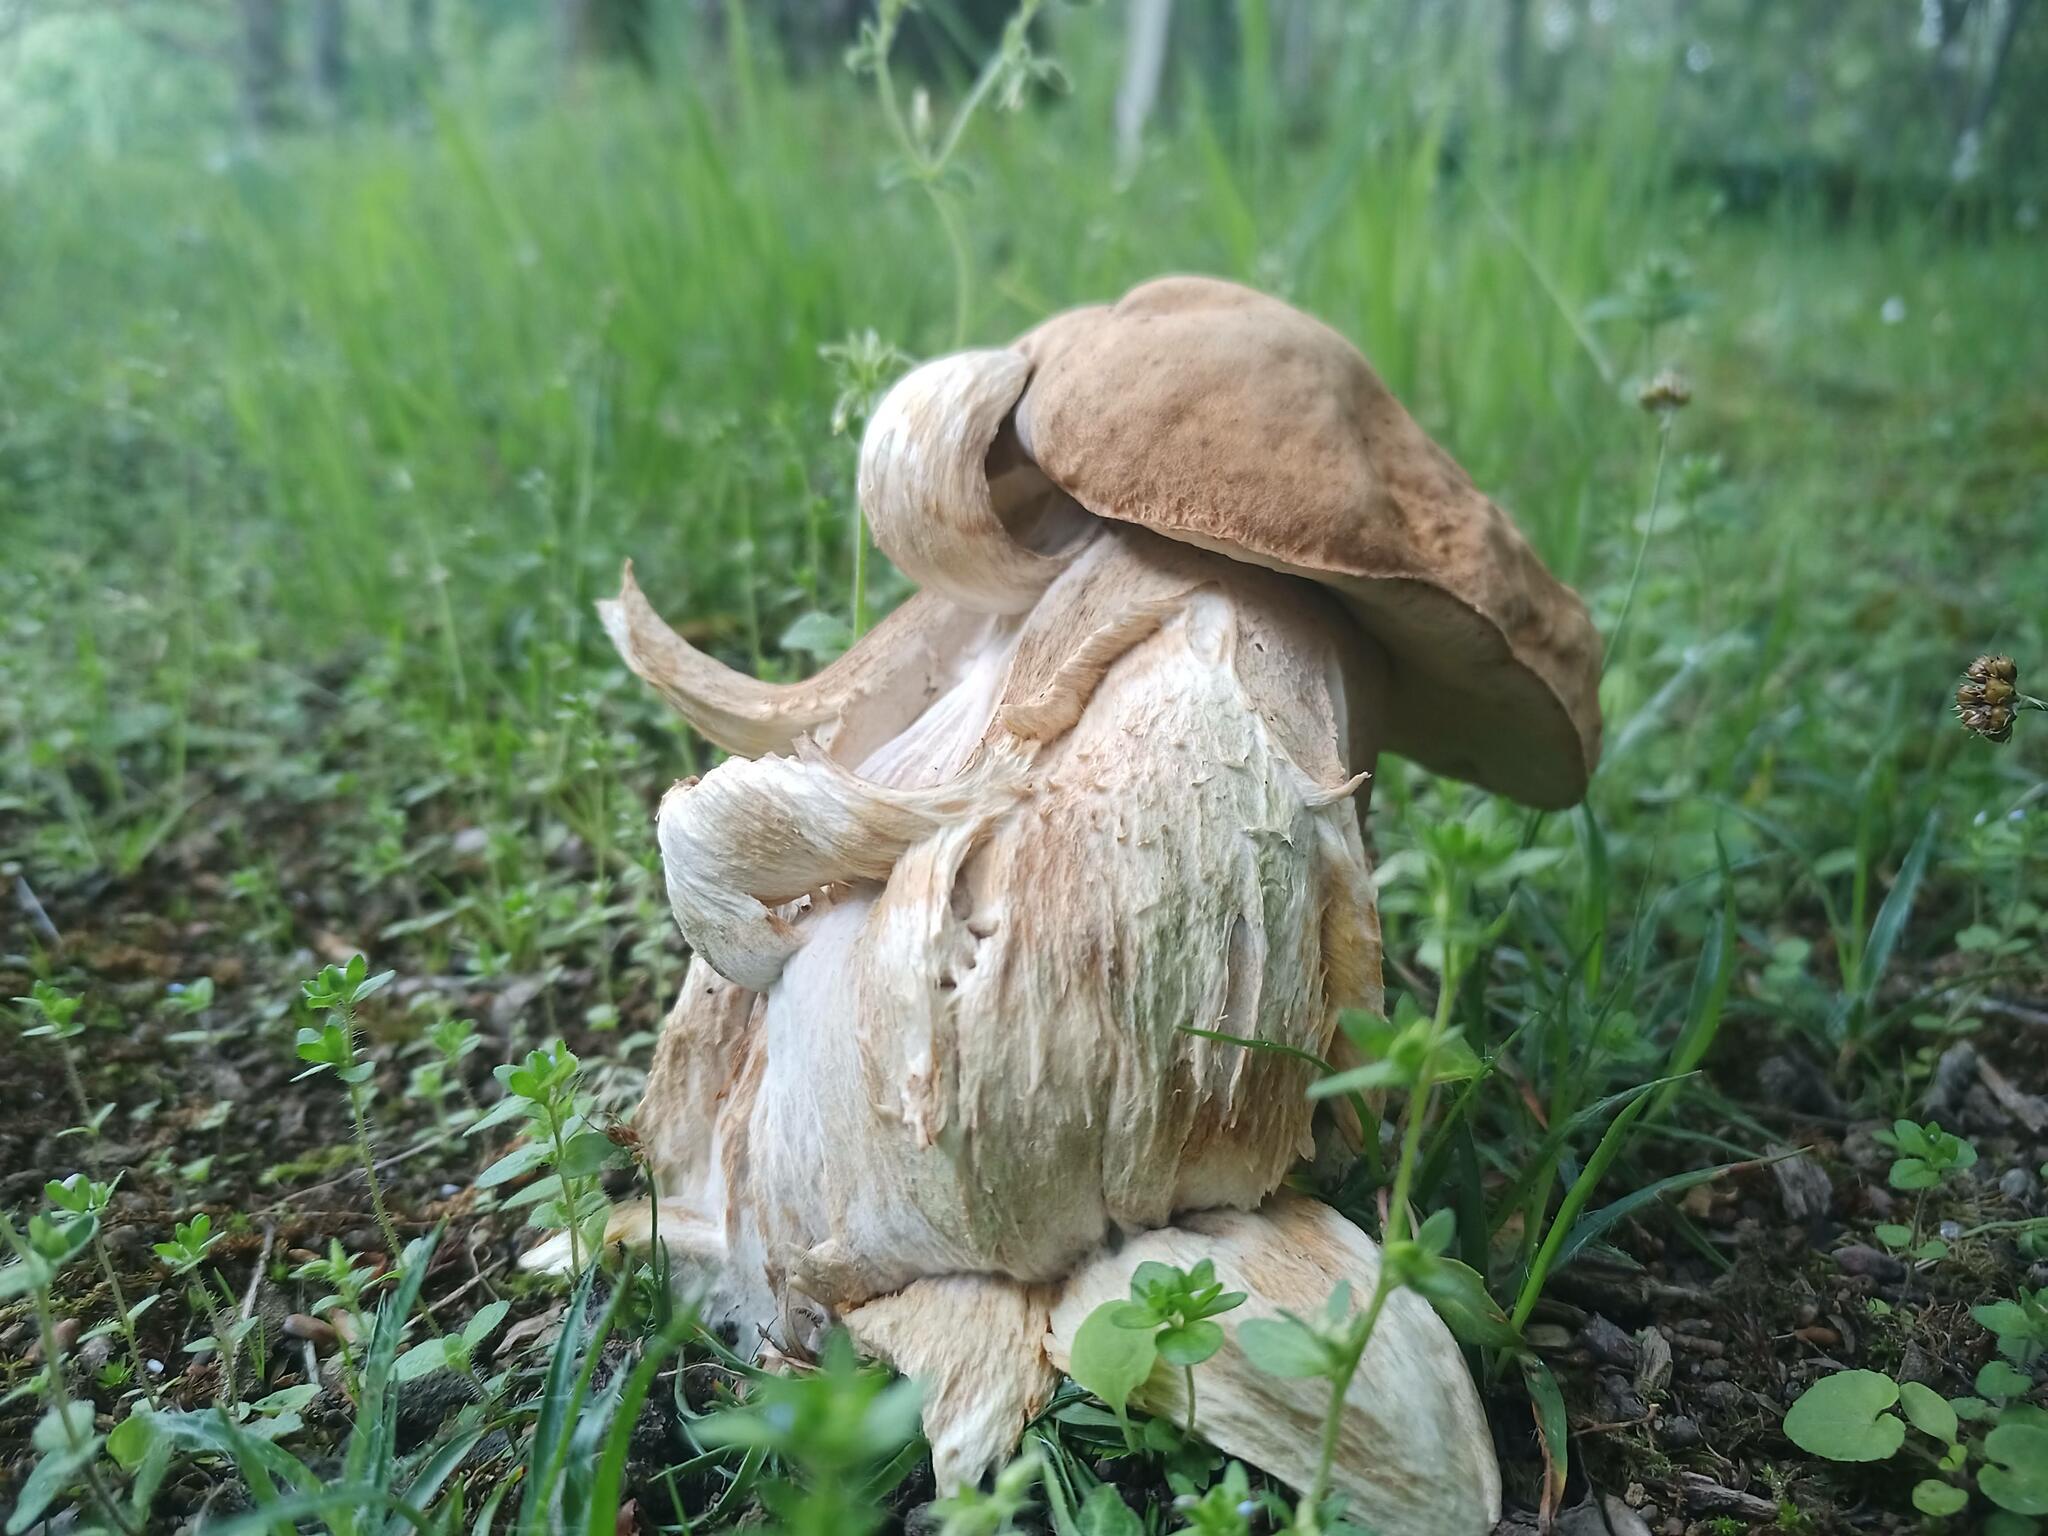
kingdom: Fungi
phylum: Basidiomycota
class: Agaricomycetes
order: Boletales
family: Boletaceae
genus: Boletus
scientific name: Boletus reticulatus
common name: Summer bolete
